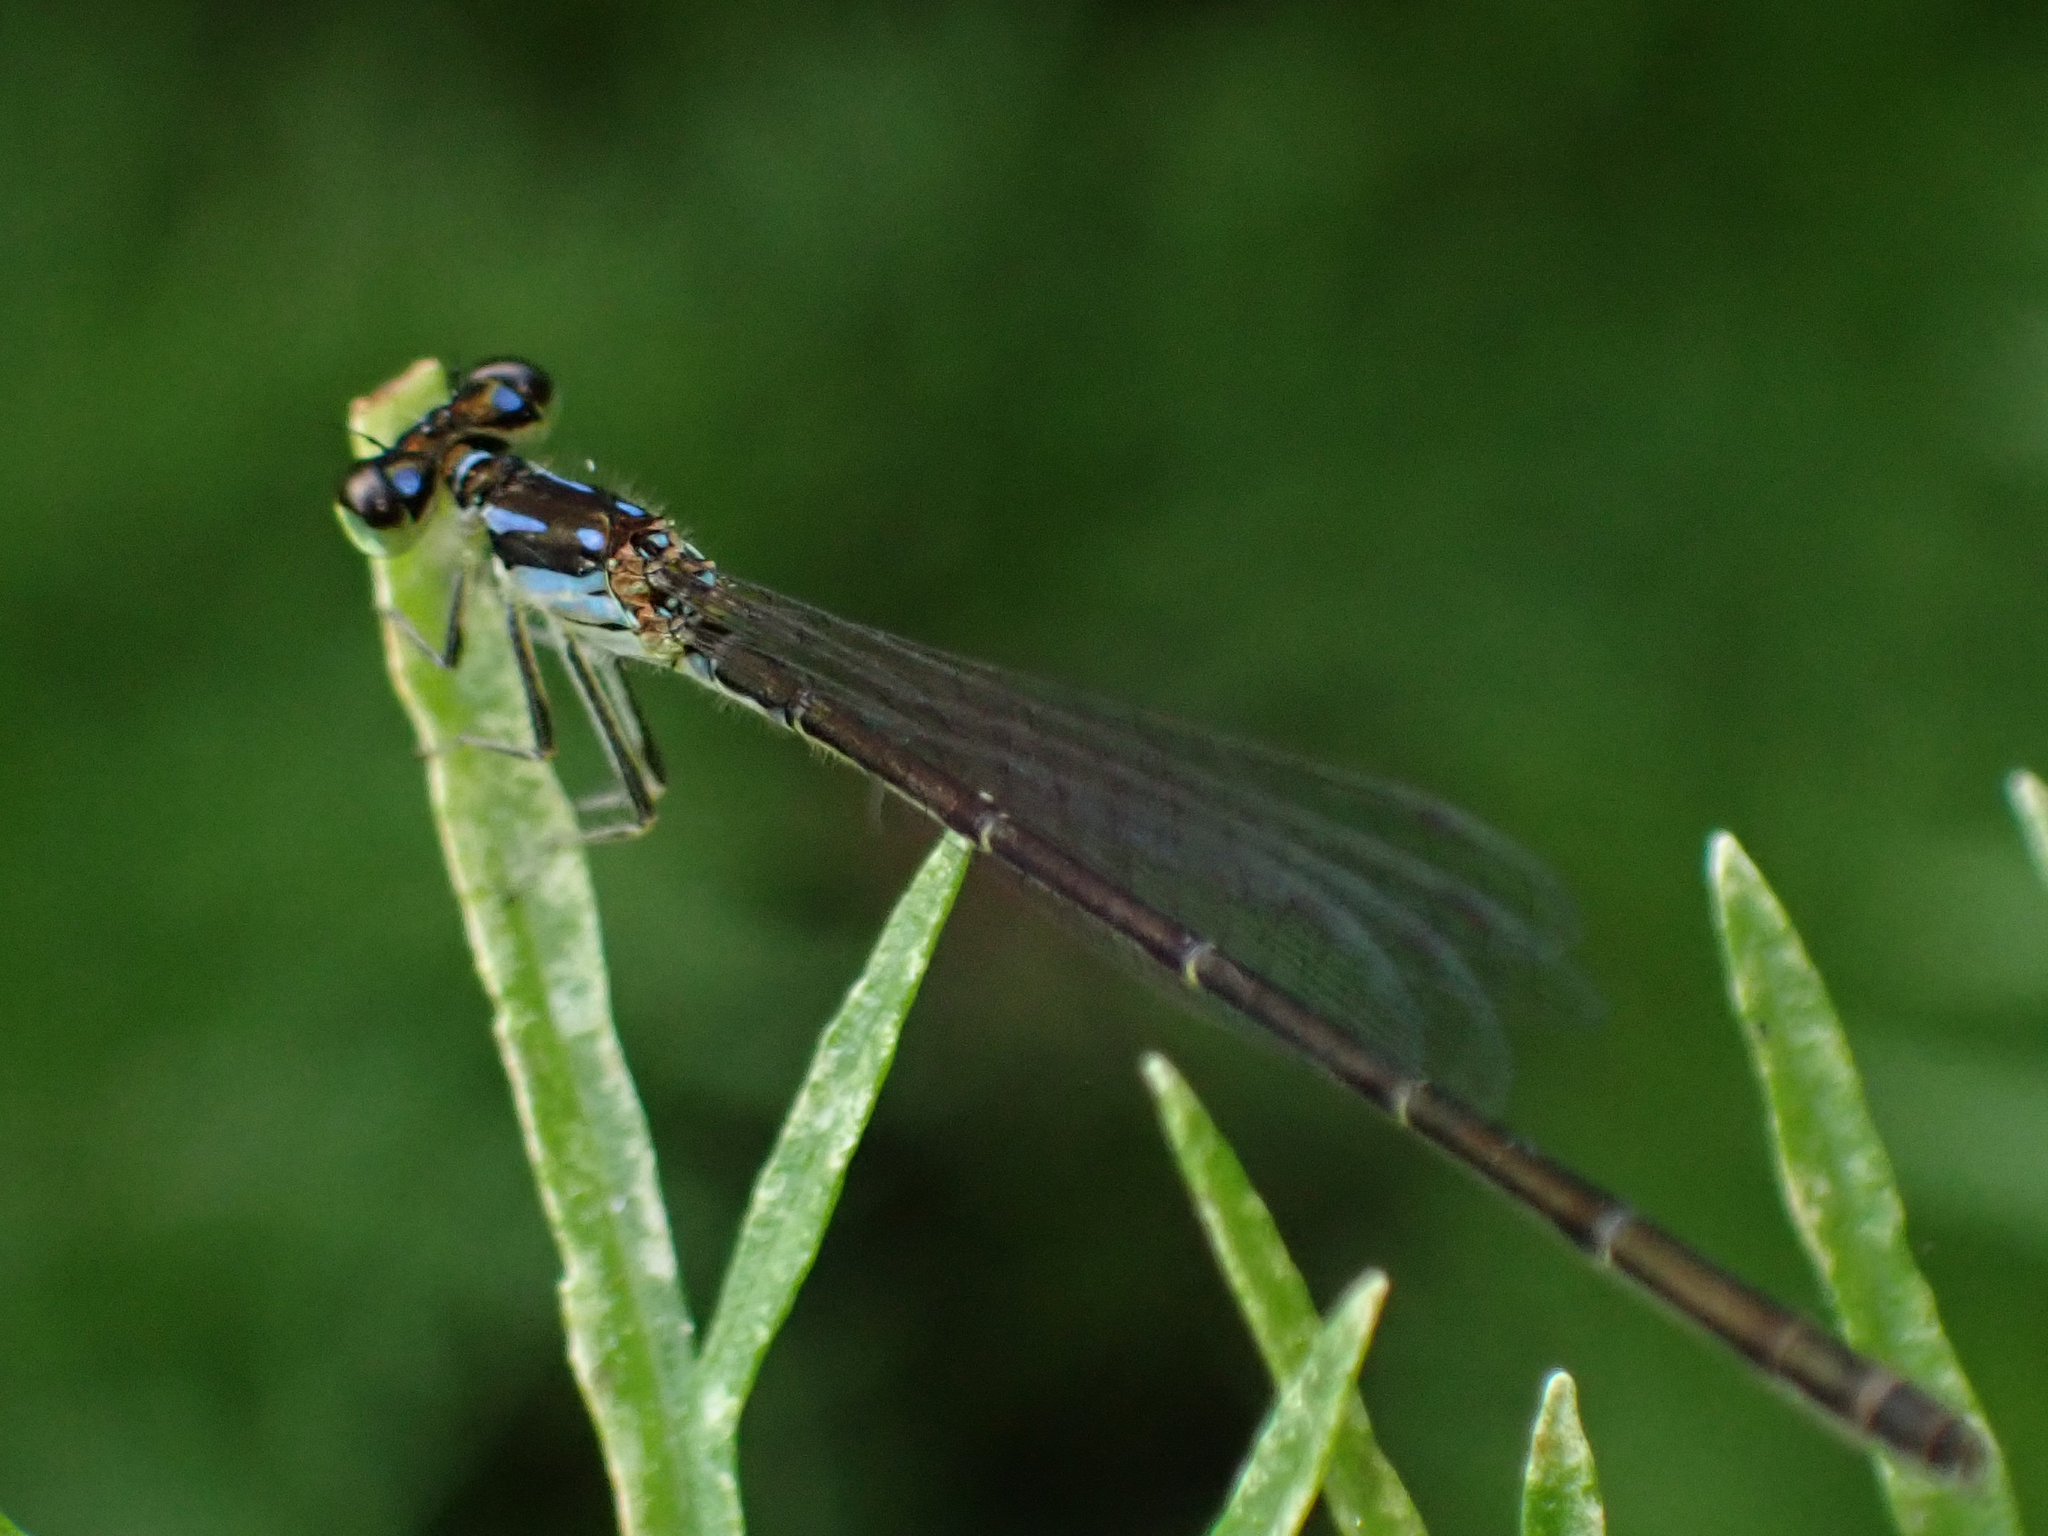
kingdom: Animalia
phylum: Arthropoda
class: Insecta
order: Odonata
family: Coenagrionidae
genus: Ischnura
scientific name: Ischnura posita
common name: Fragile forktail
